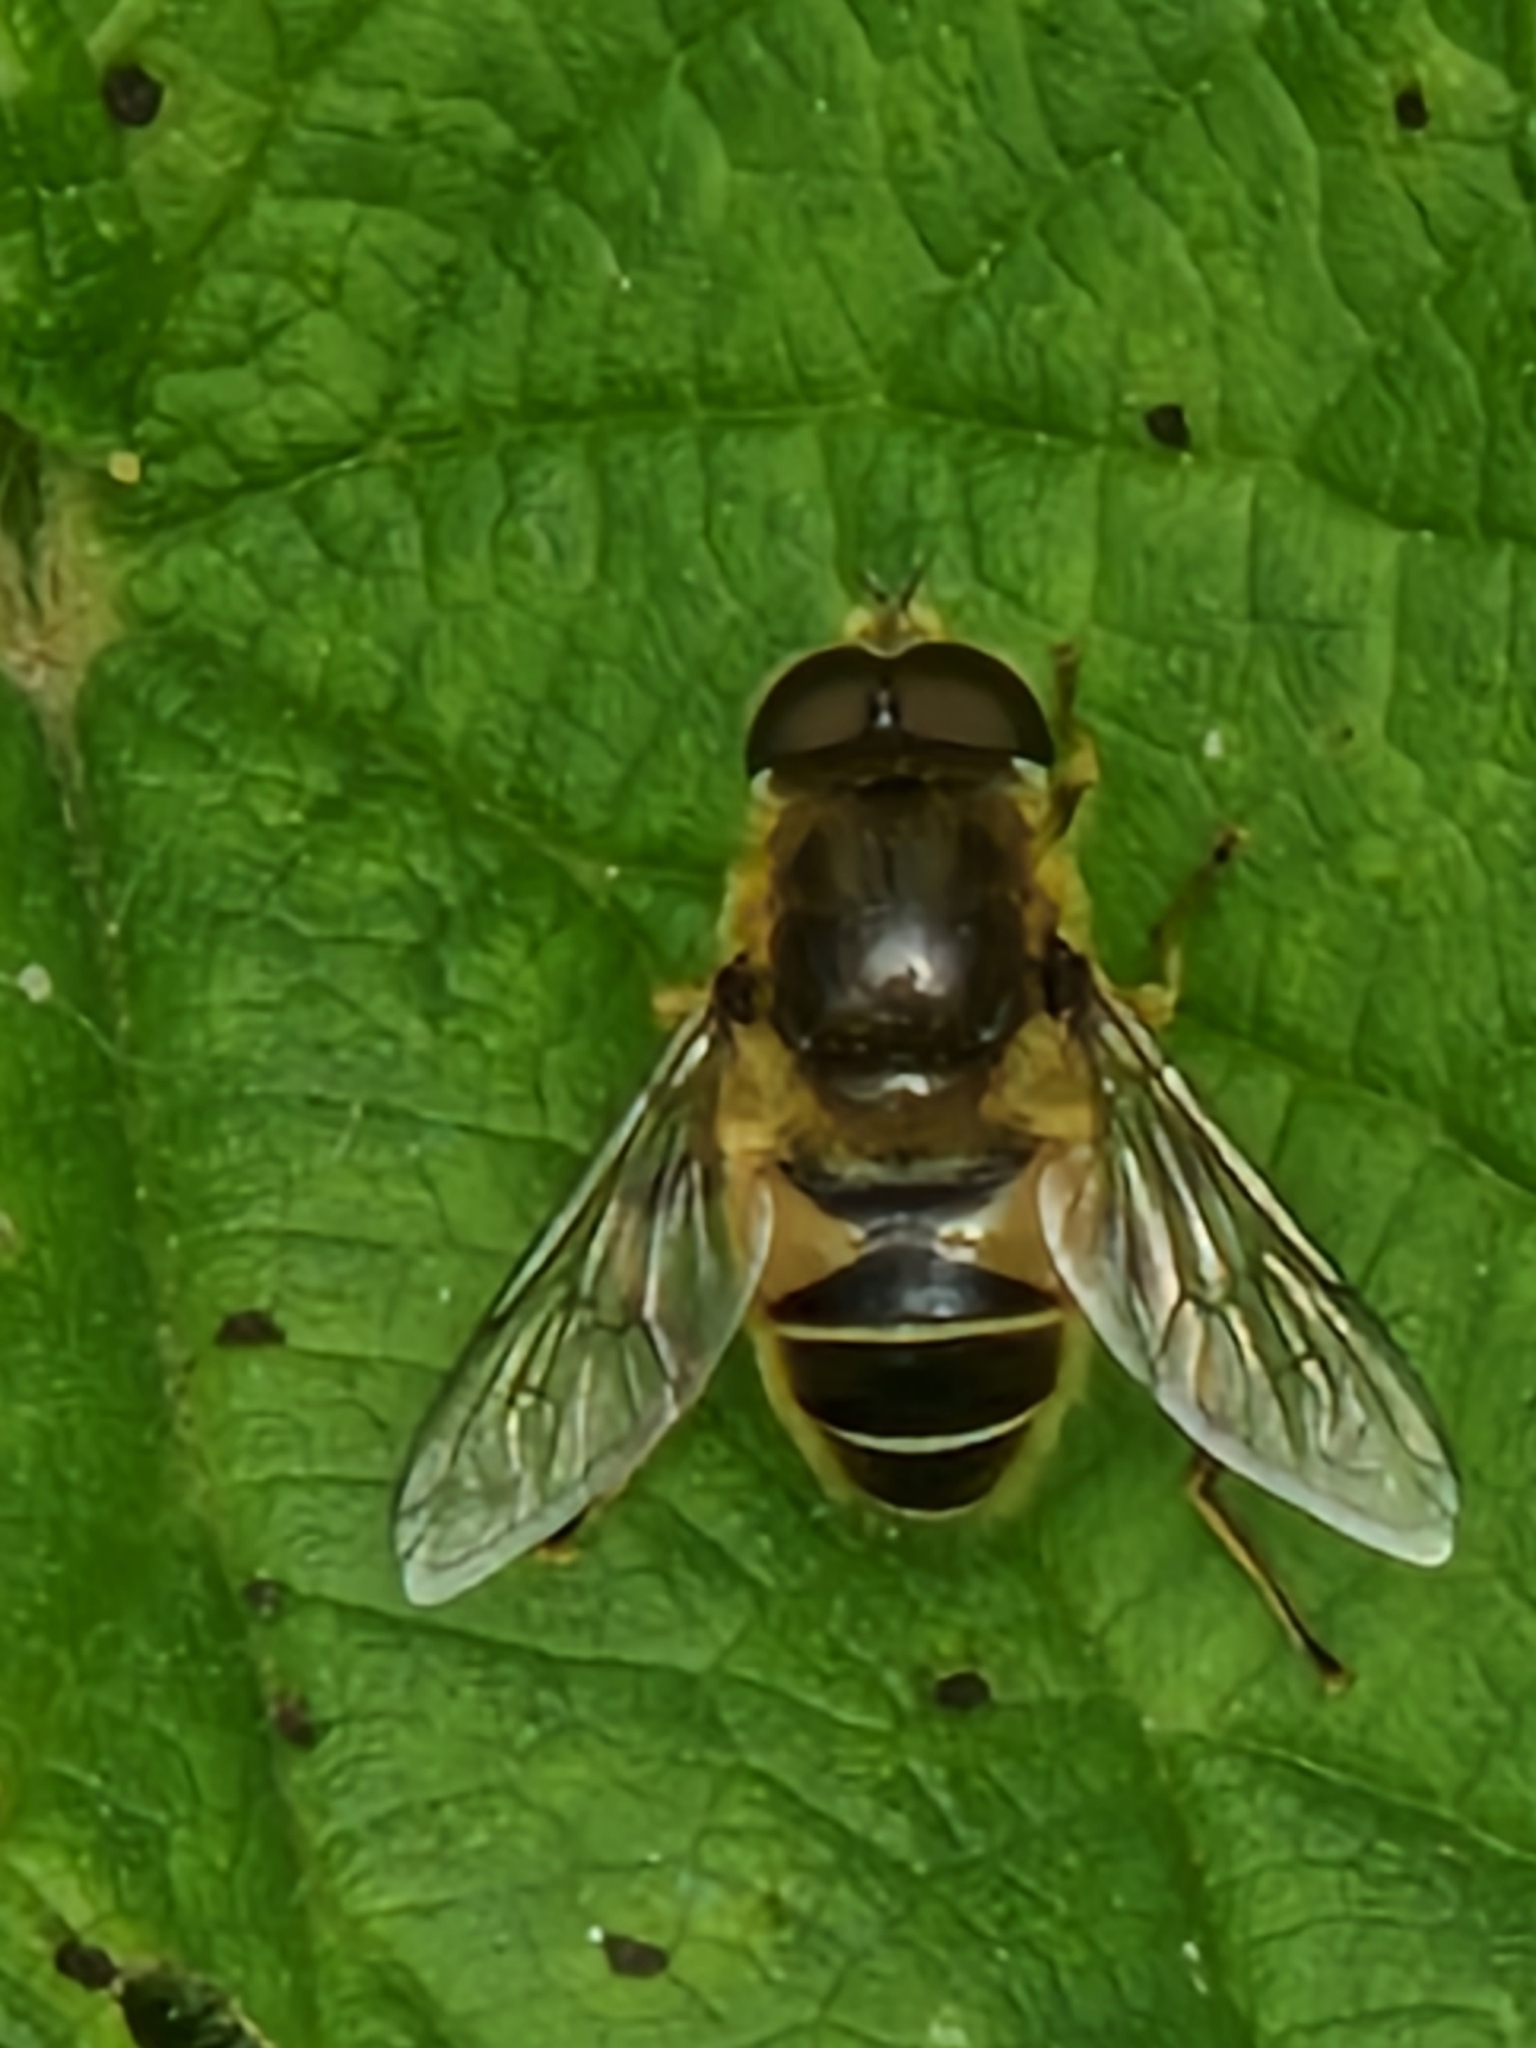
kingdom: Animalia
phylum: Arthropoda
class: Insecta
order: Diptera
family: Syrphidae
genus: Eristalis
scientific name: Eristalis nemorum
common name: Orange-spined drone fly
